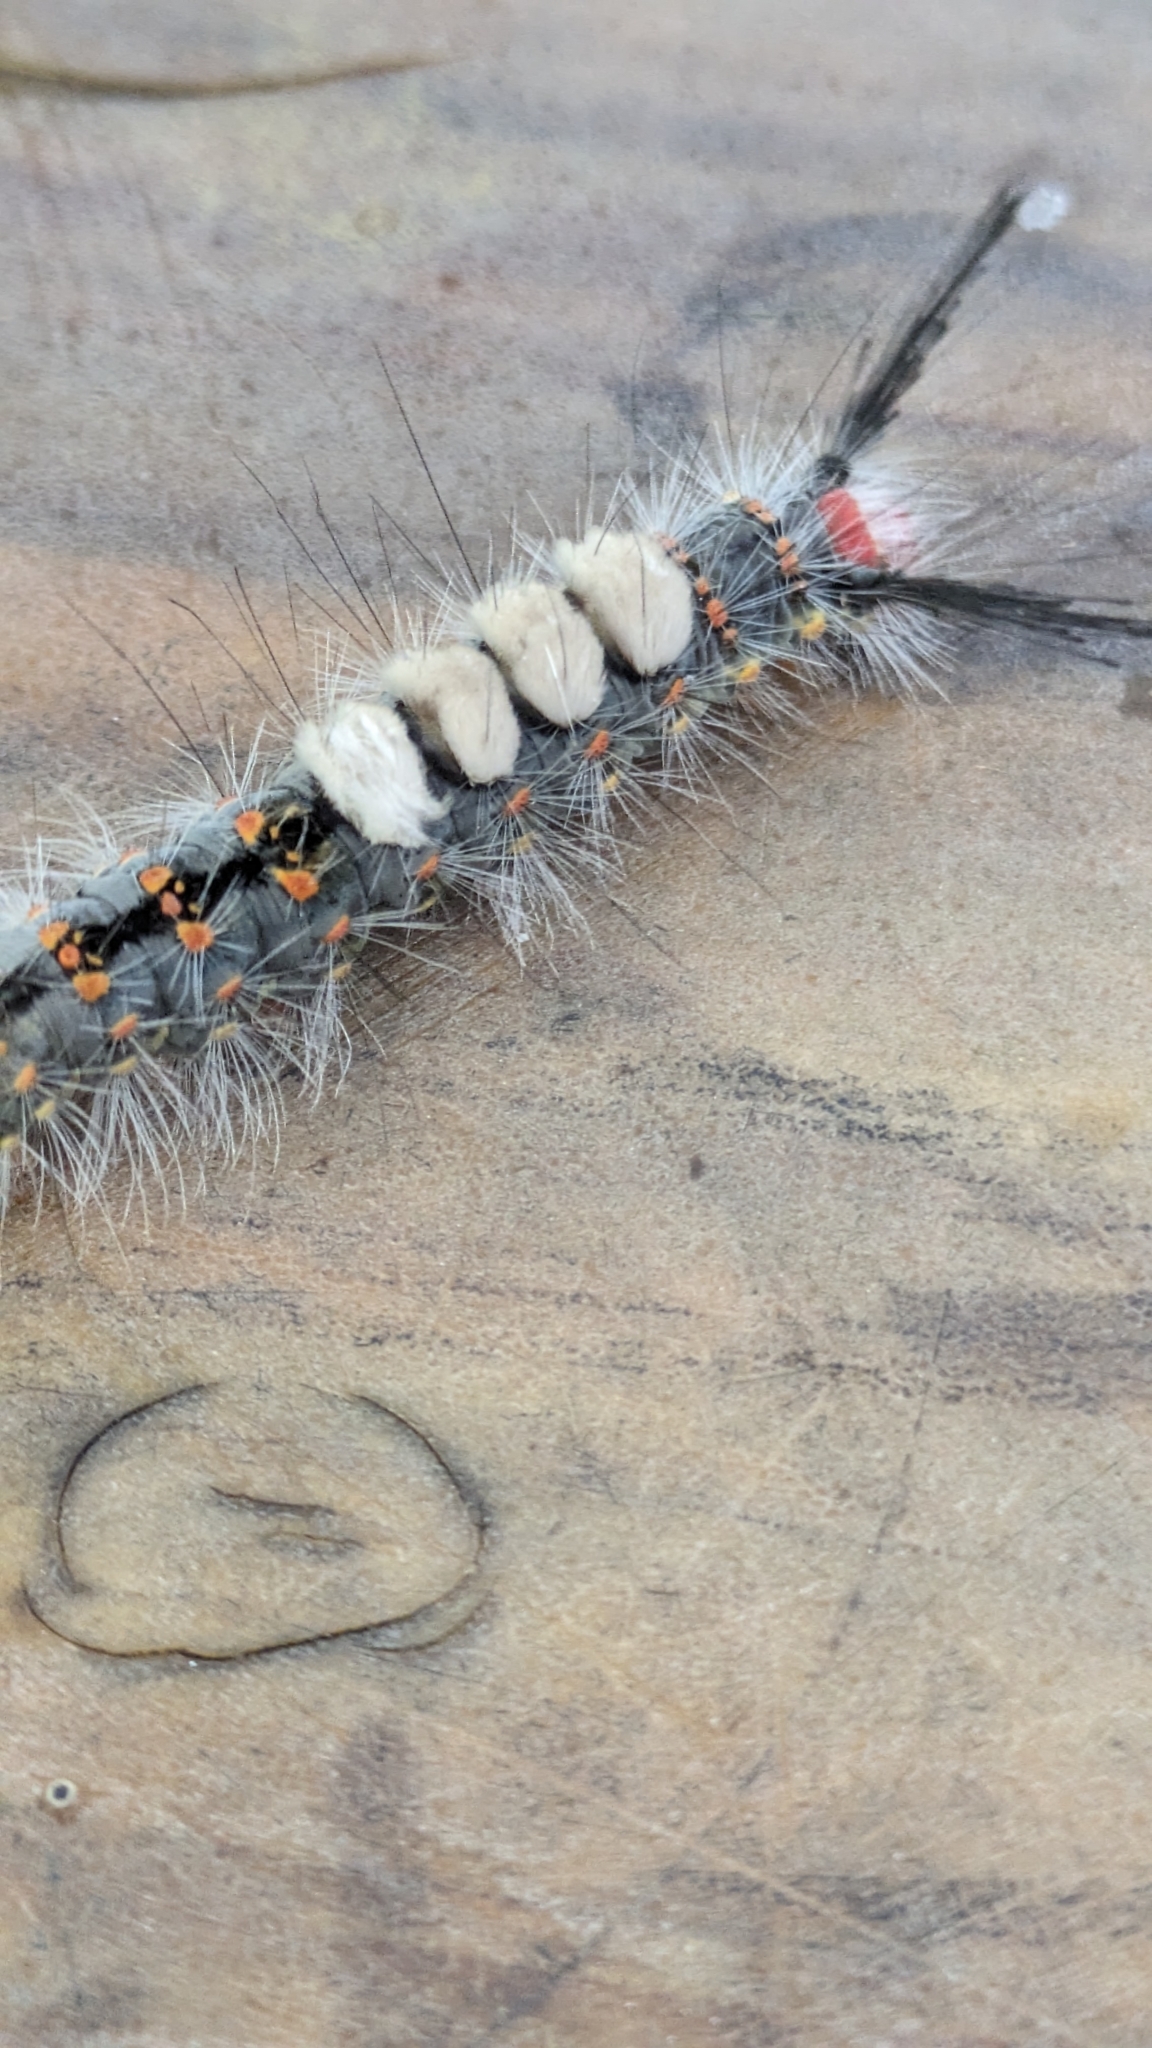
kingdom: Animalia
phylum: Arthropoda
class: Insecta
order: Lepidoptera
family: Erebidae
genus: Orgyia
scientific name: Orgyia detrita
